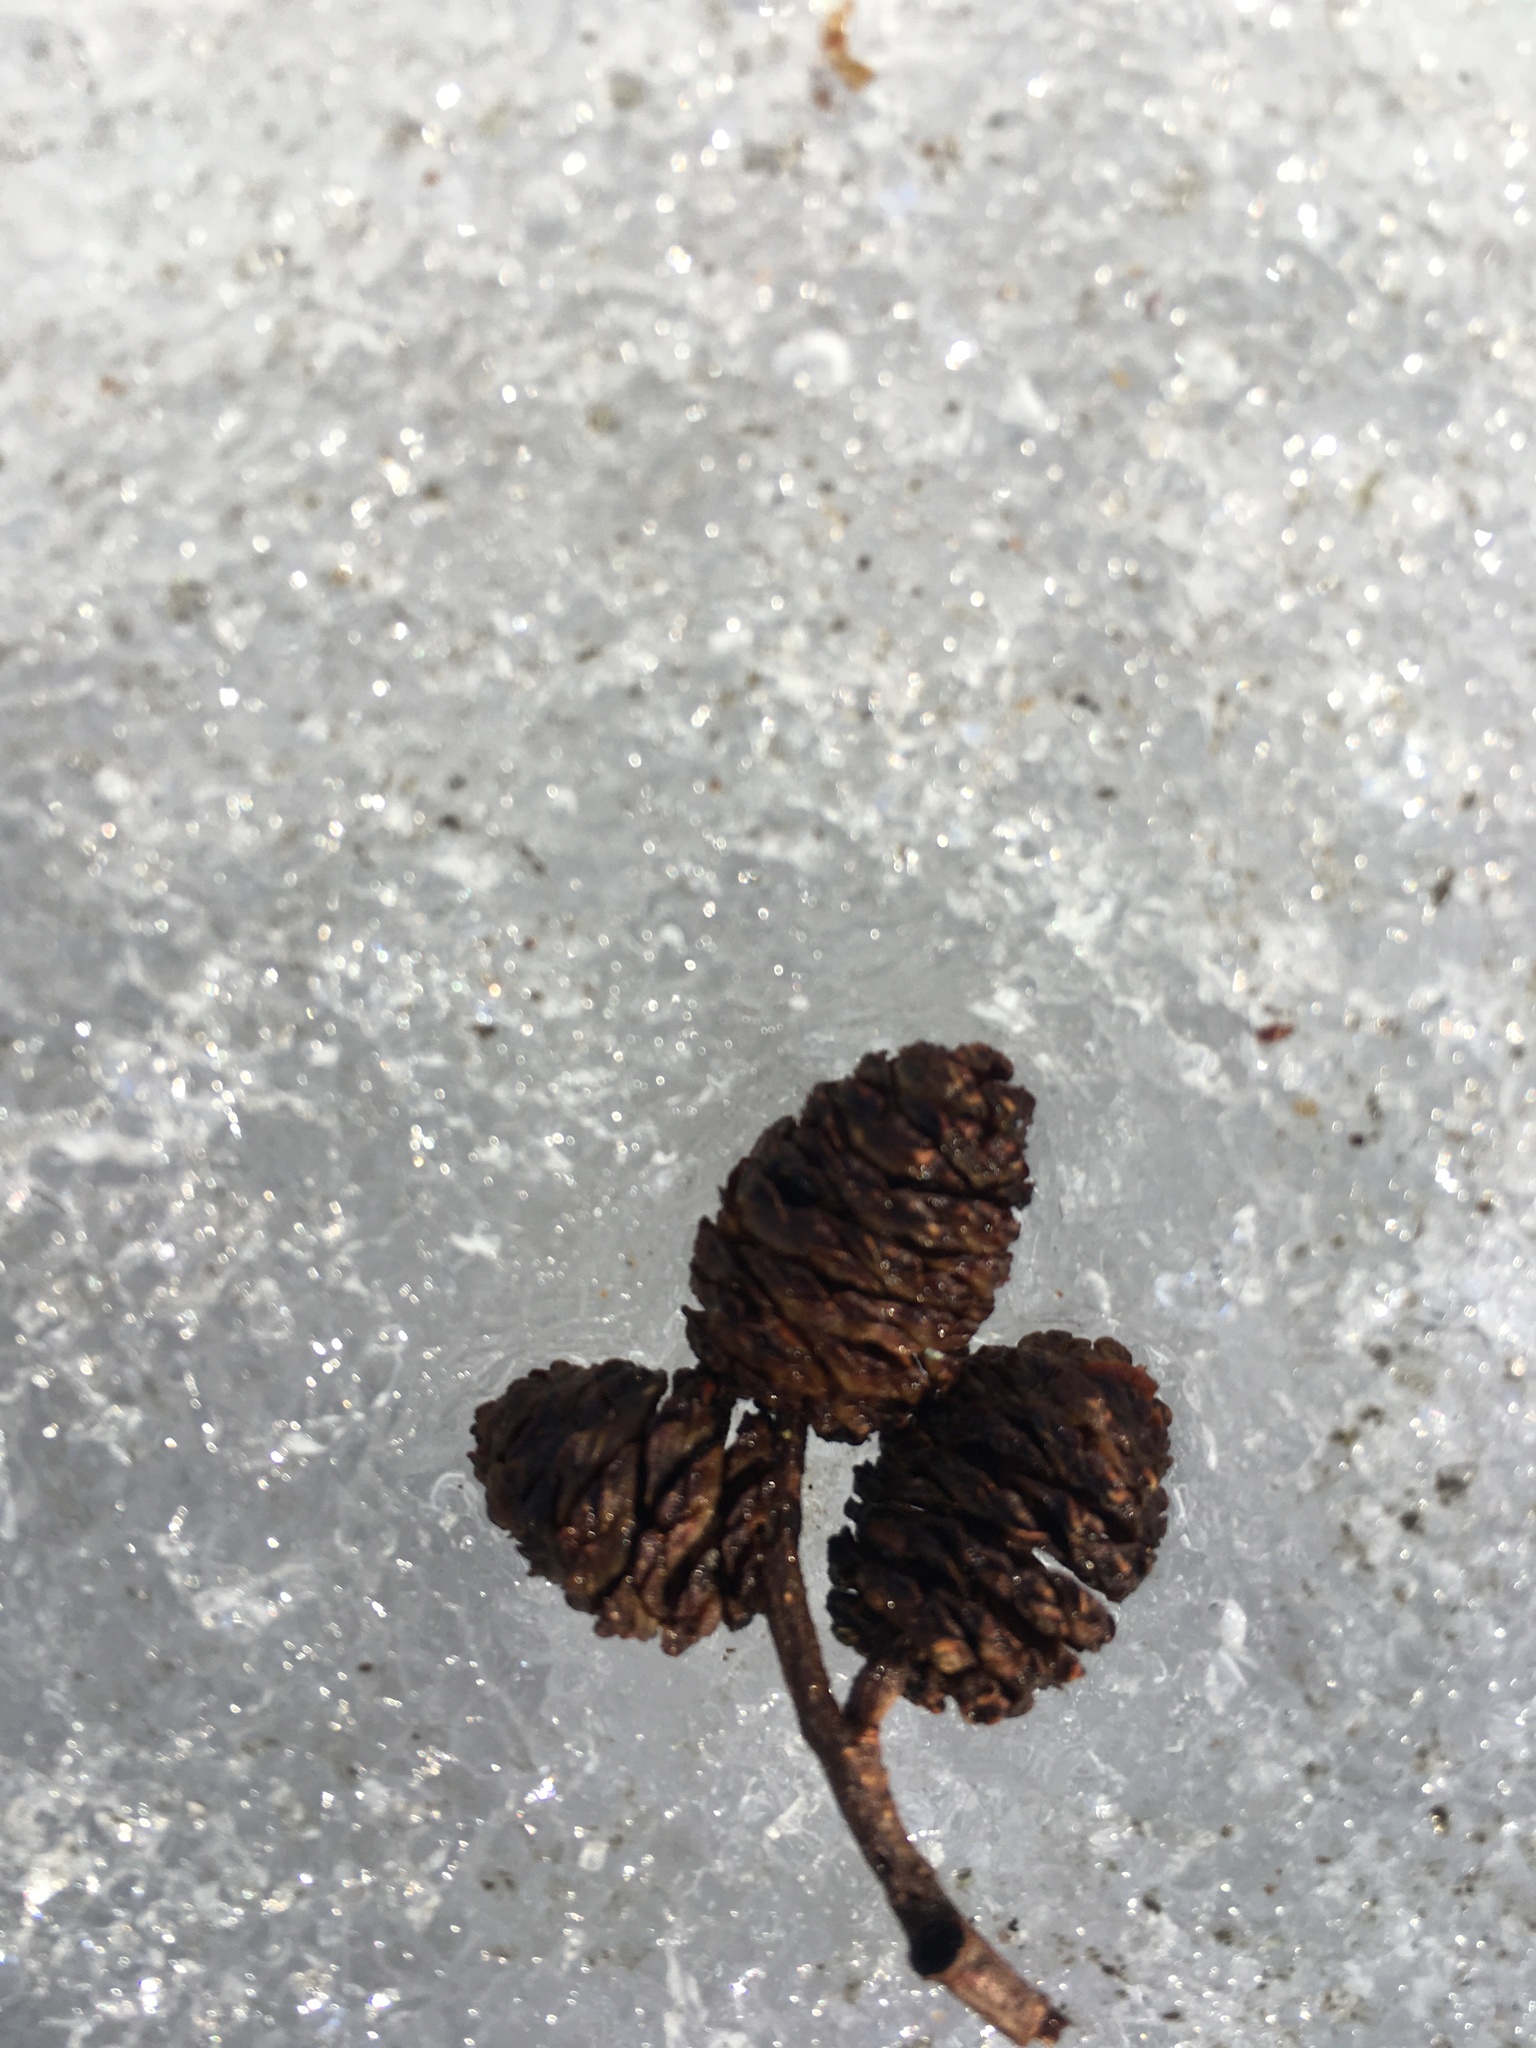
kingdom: Plantae
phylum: Tracheophyta
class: Magnoliopsida
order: Fagales
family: Betulaceae
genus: Alnus
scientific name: Alnus incana
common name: Grey alder
